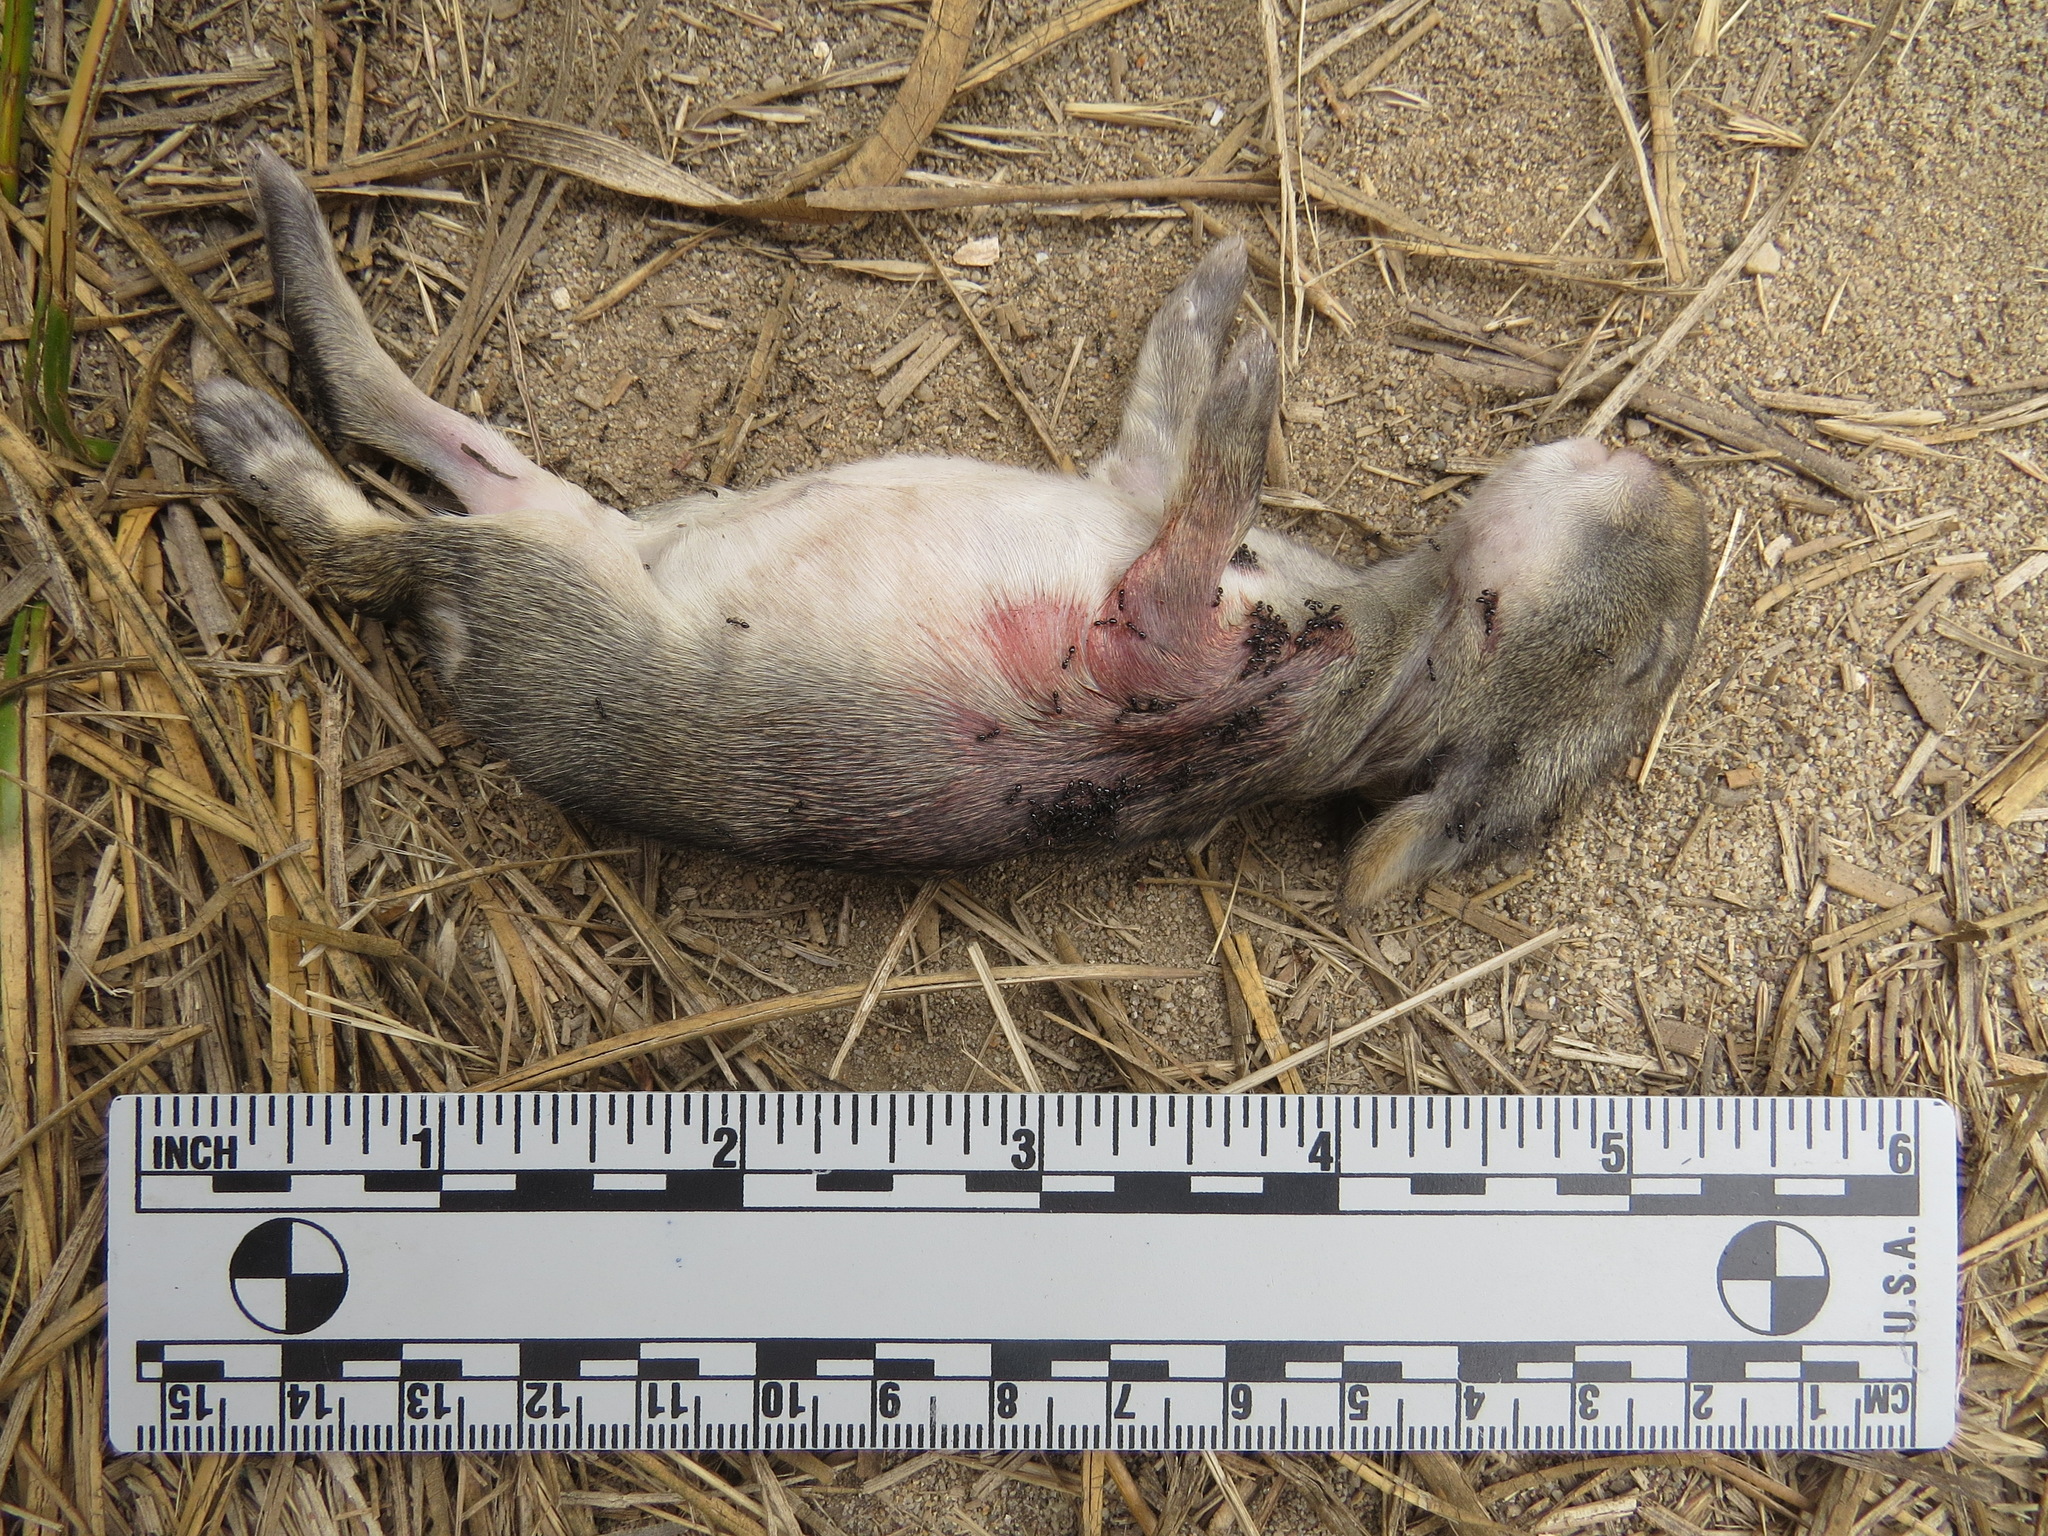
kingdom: Animalia
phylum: Chordata
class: Mammalia
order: Lagomorpha
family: Leporidae
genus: Sylvilagus
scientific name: Sylvilagus bachmani
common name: Brush rabbit
